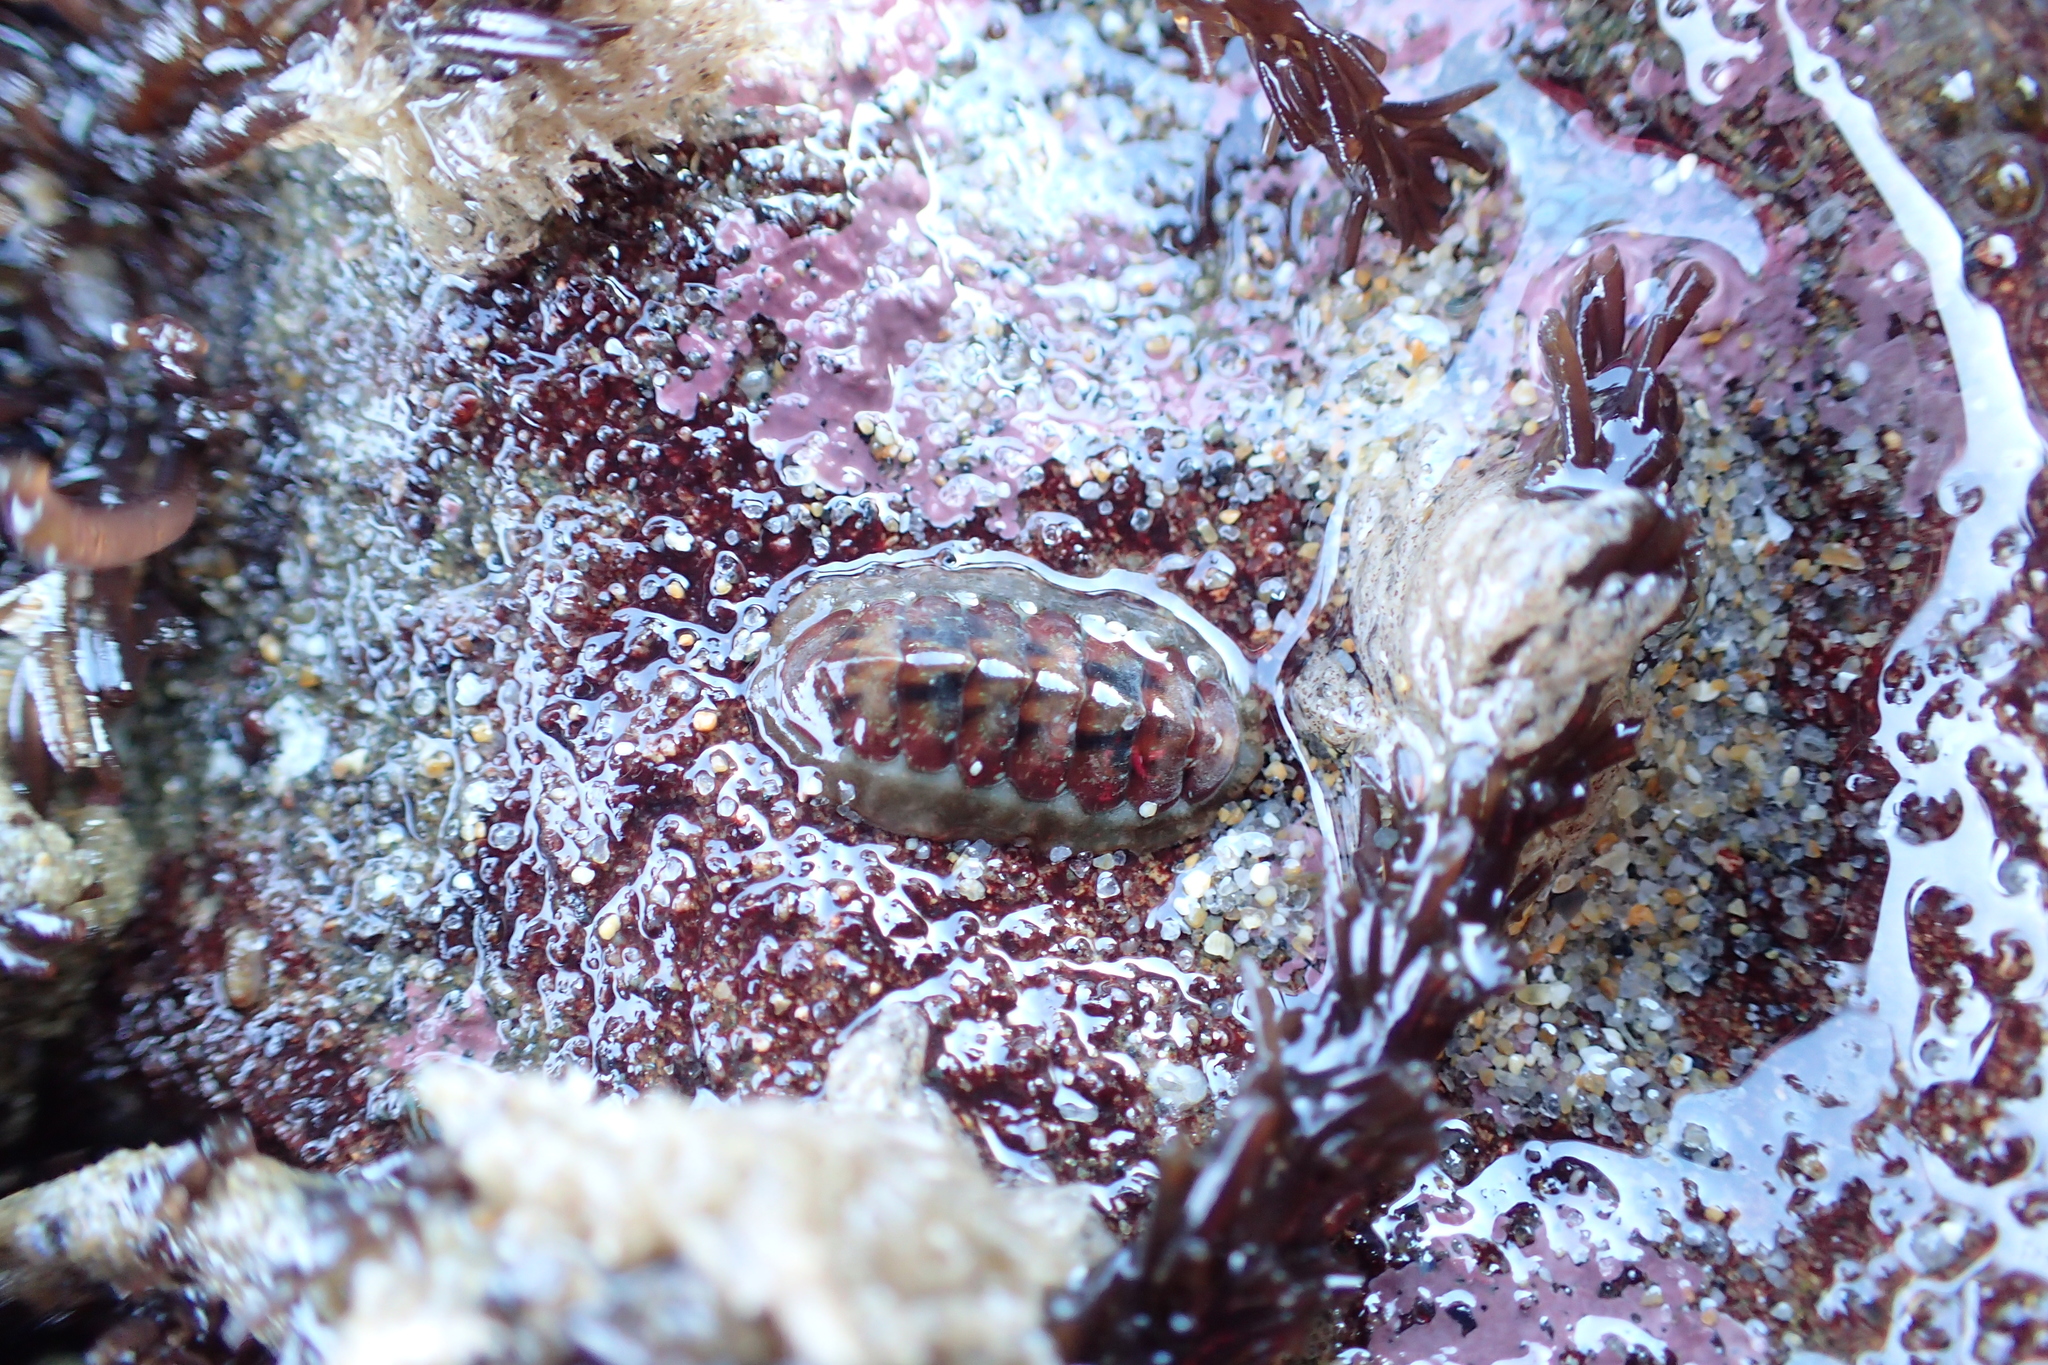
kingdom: Animalia
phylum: Mollusca
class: Polyplacophora
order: Chitonida
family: Tonicellidae
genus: Cyanoplax
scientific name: Cyanoplax dentiens
